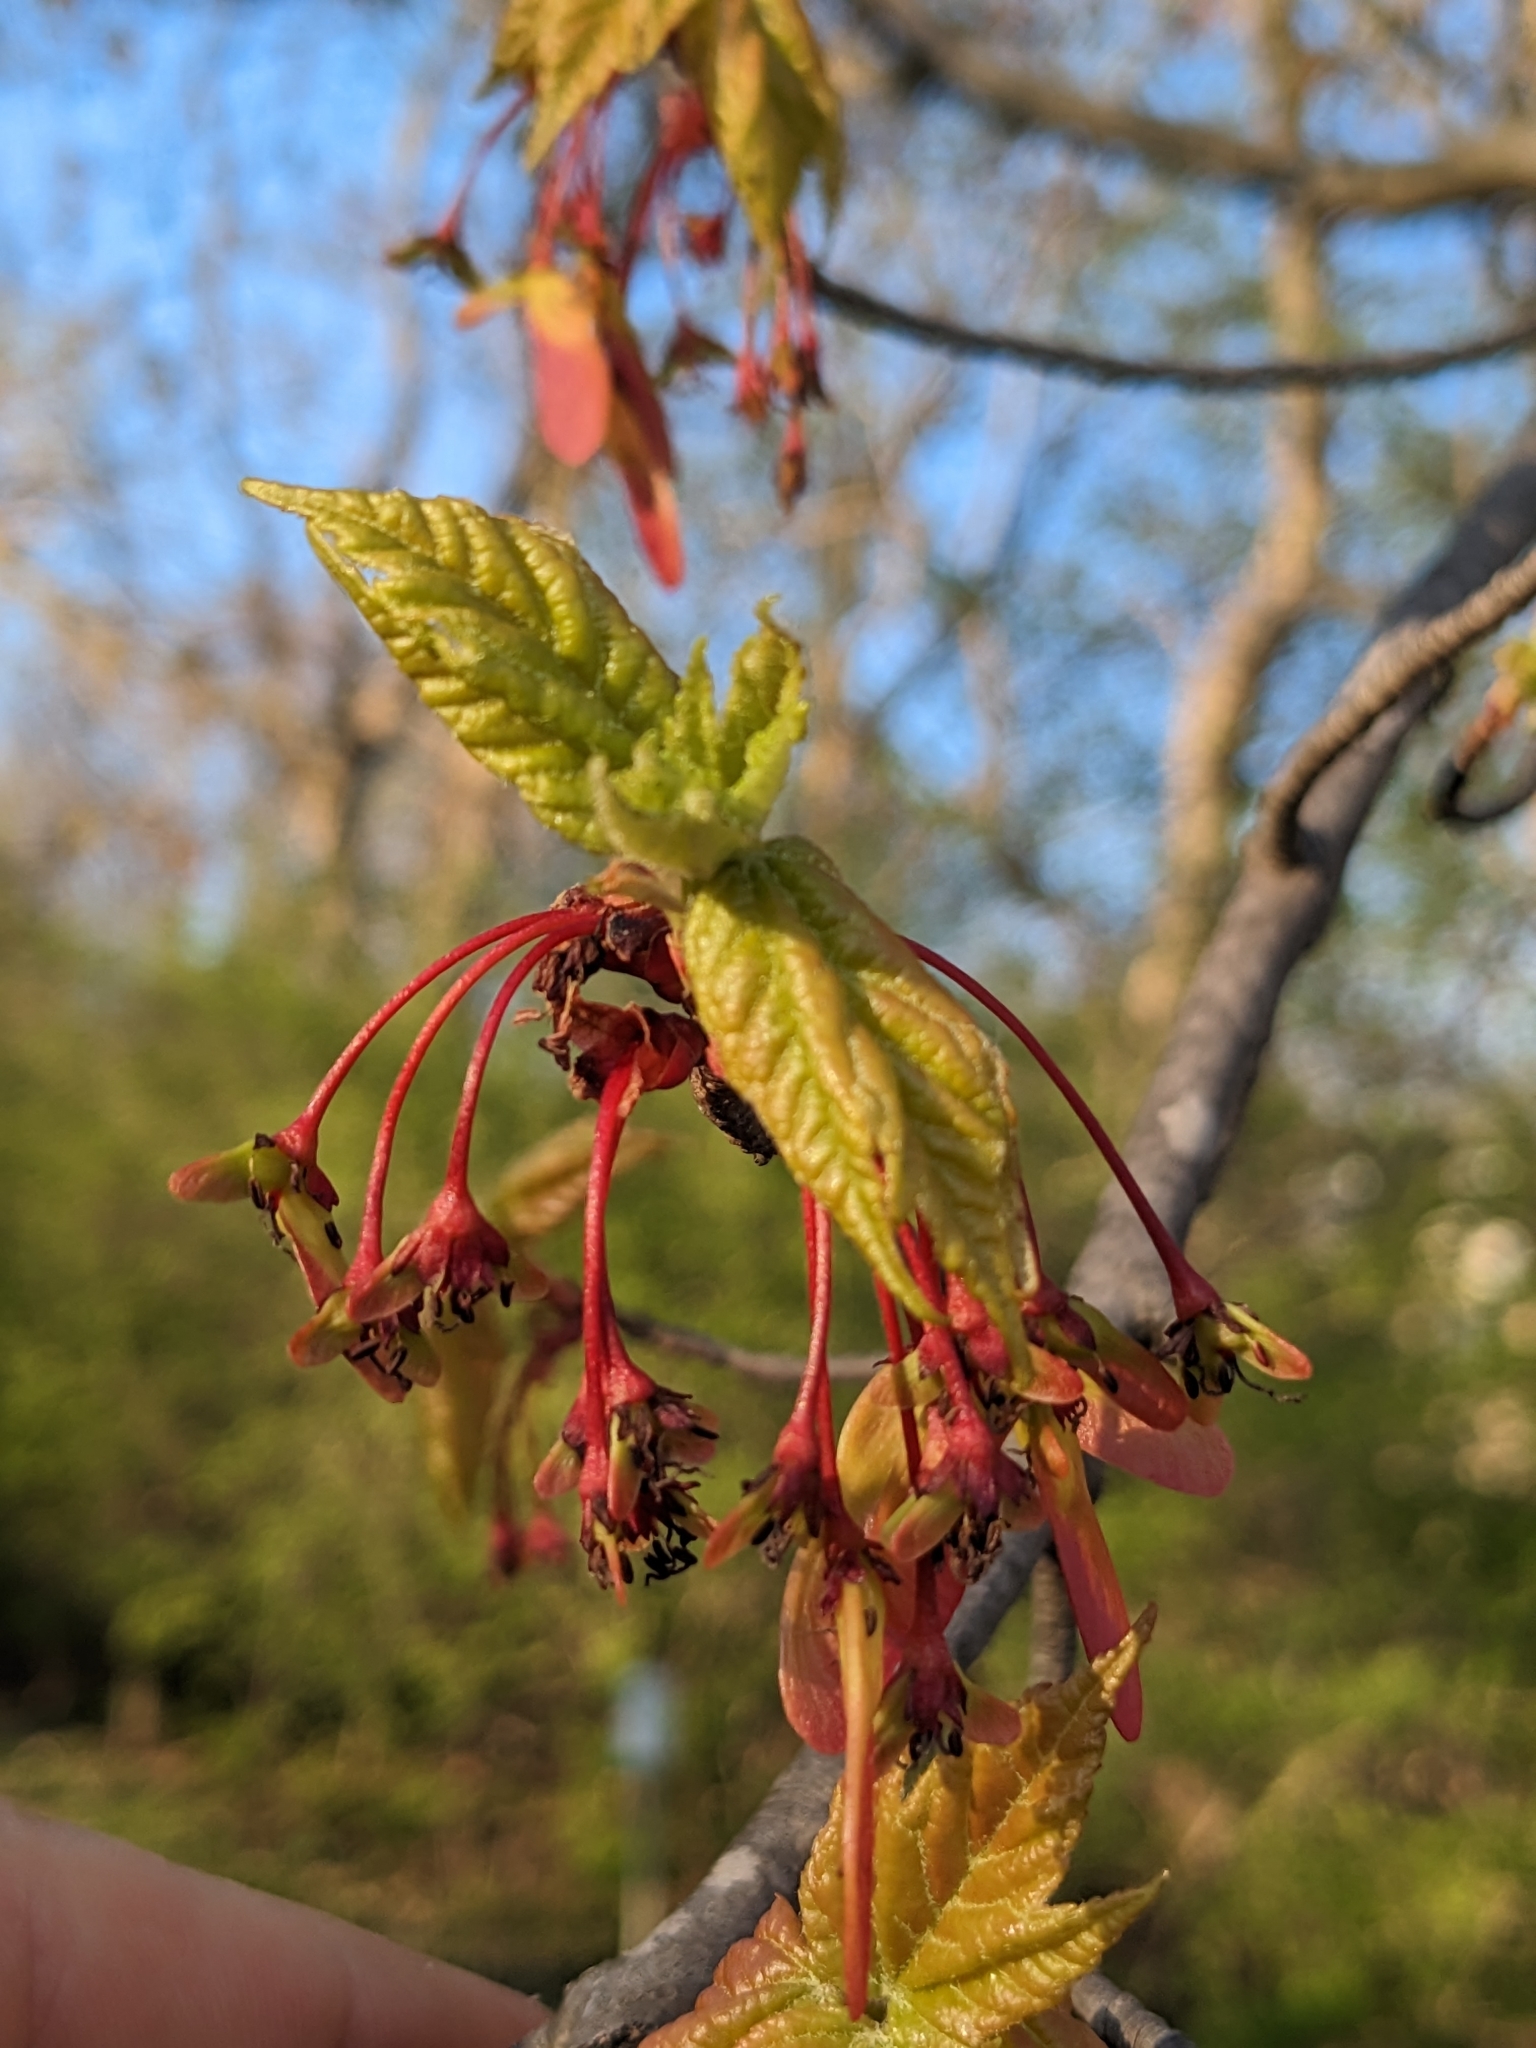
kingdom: Plantae
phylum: Tracheophyta
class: Magnoliopsida
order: Sapindales
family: Sapindaceae
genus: Acer
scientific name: Acer rubrum
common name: Red maple
